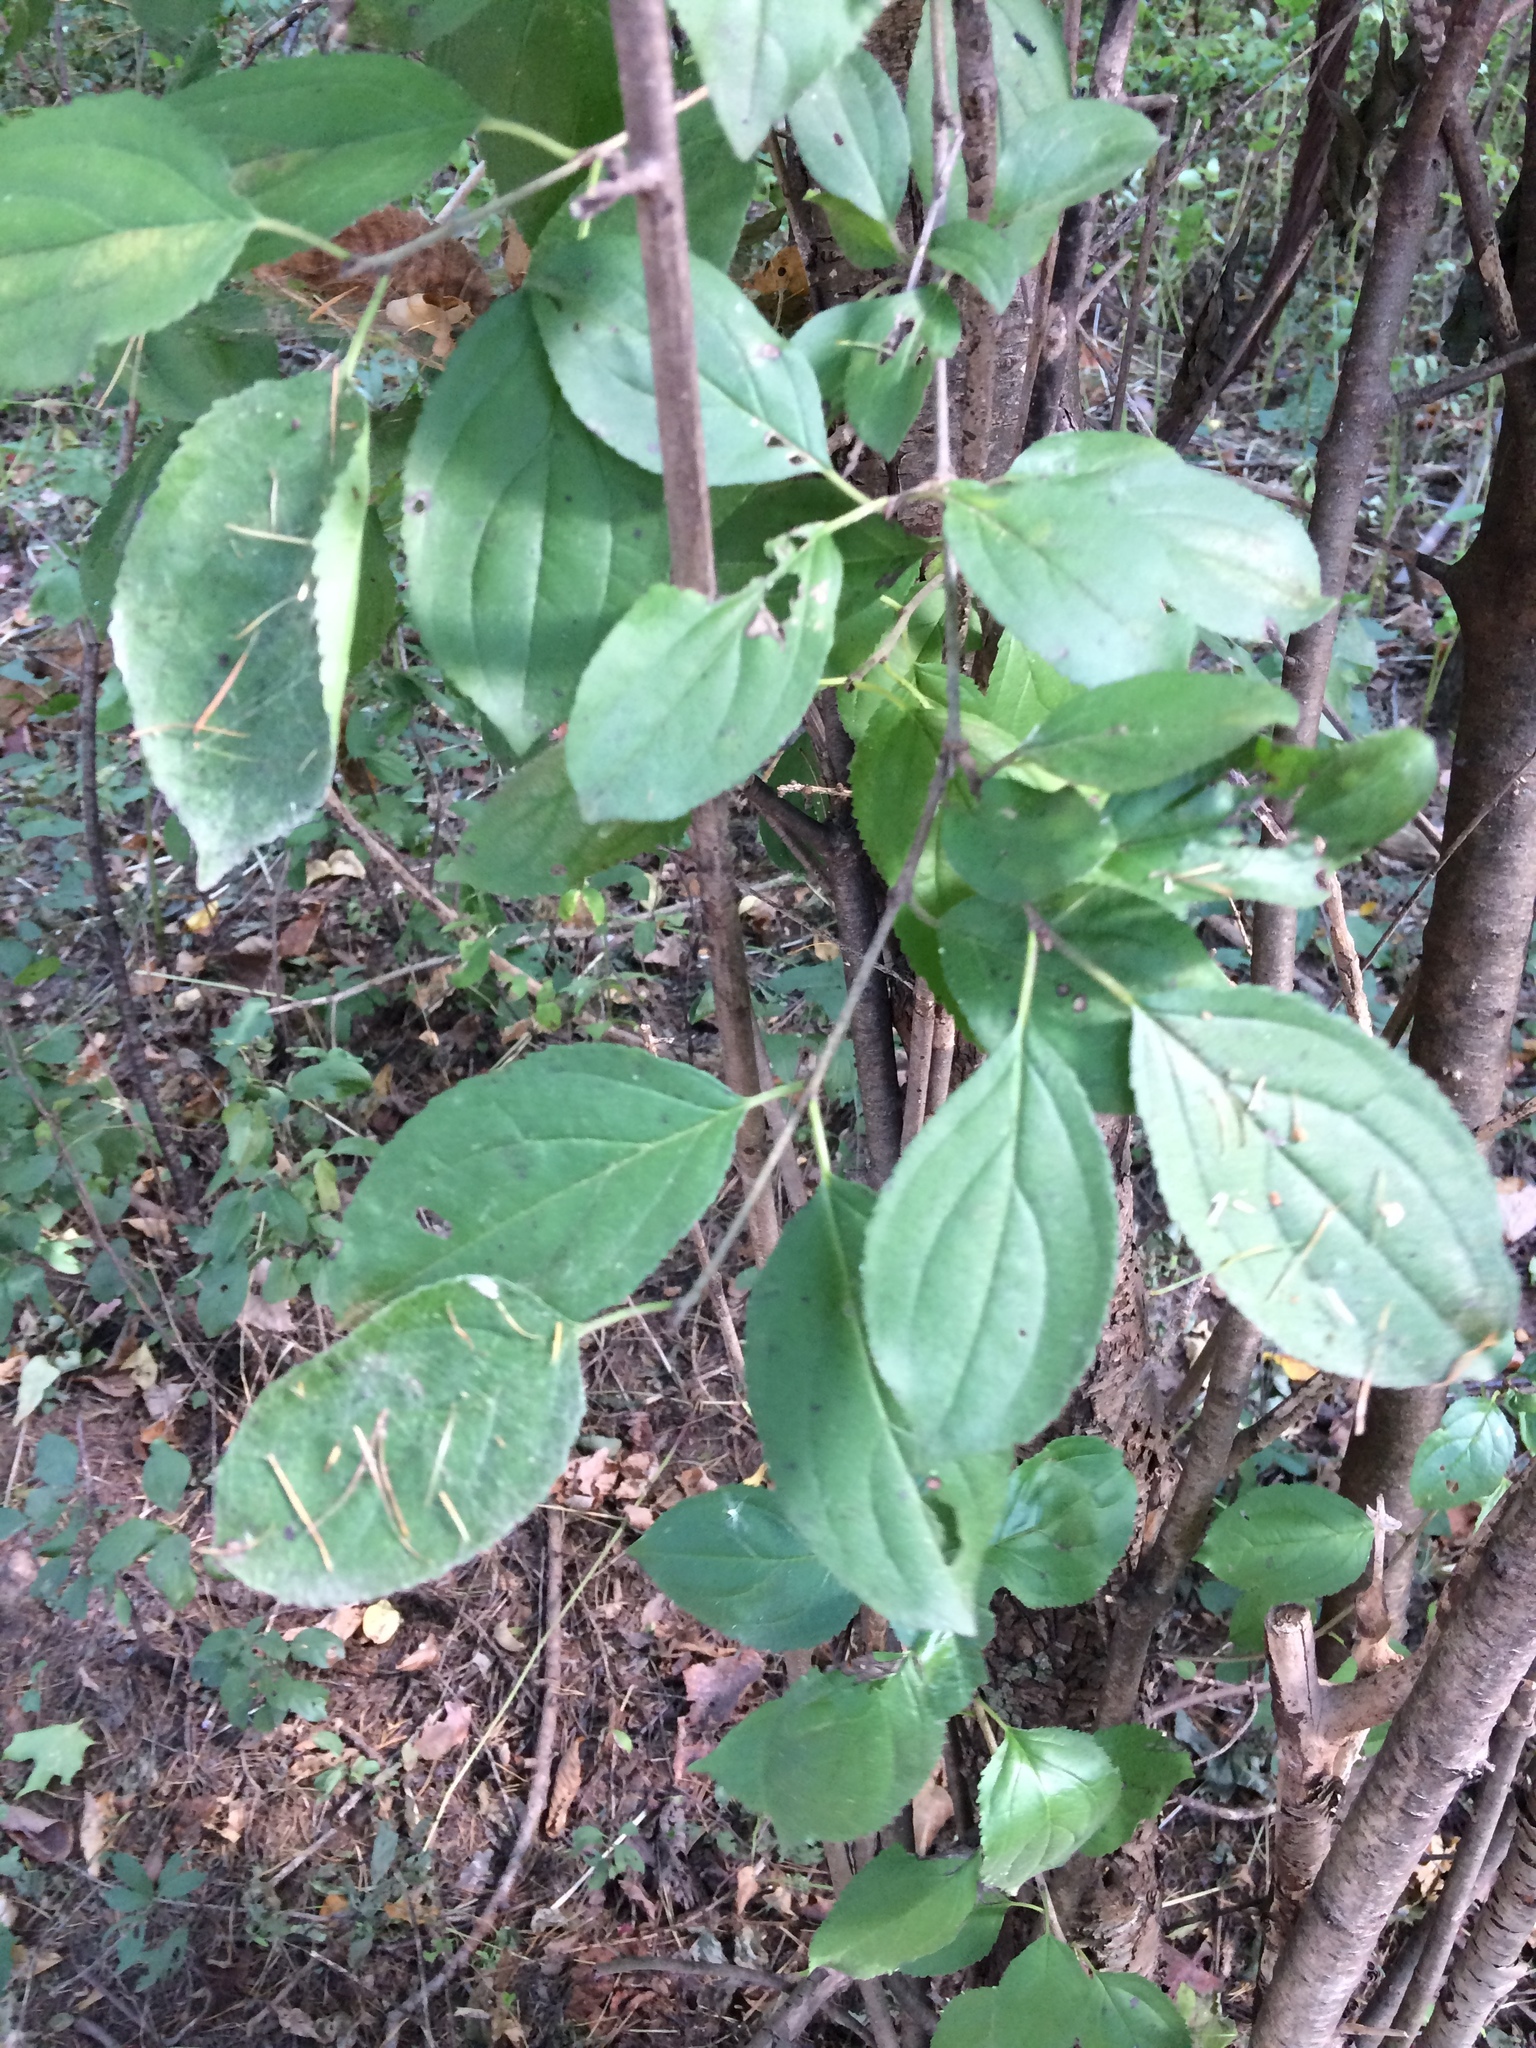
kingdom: Plantae
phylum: Tracheophyta
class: Magnoliopsida
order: Rosales
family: Rhamnaceae
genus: Rhamnus
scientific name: Rhamnus cathartica
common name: Common buckthorn
